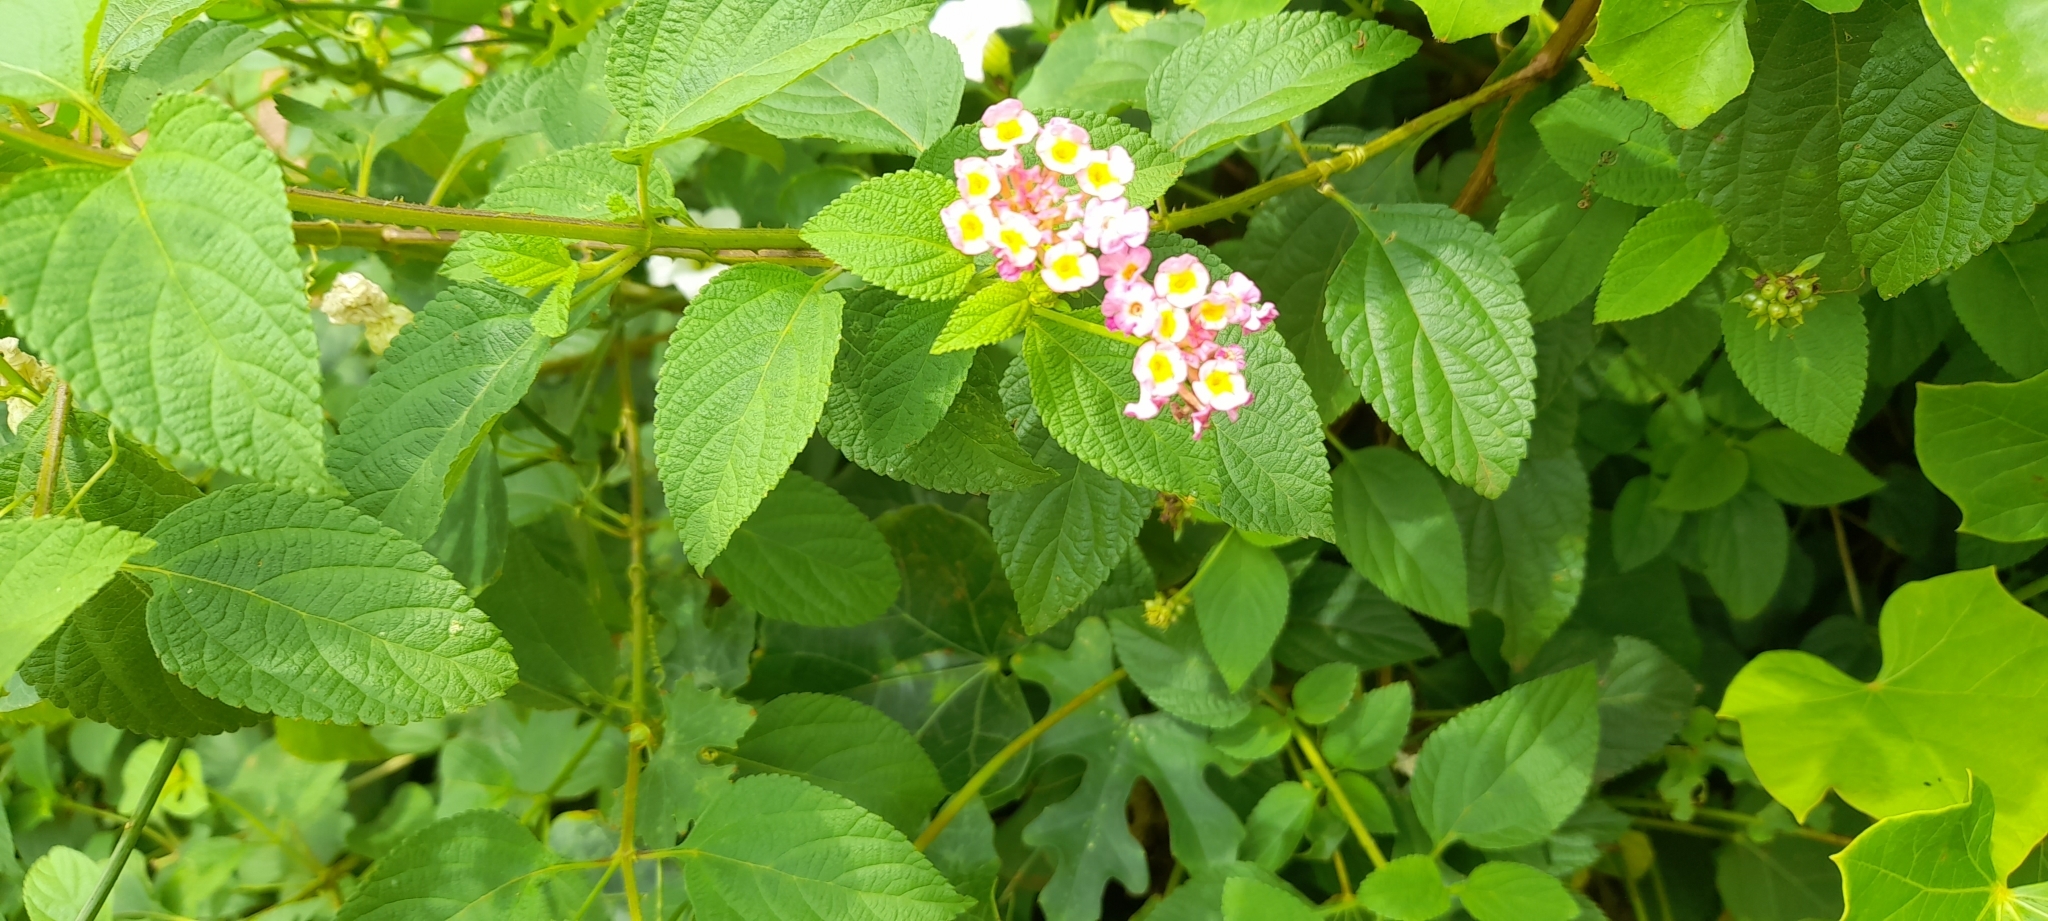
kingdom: Plantae
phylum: Tracheophyta
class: Magnoliopsida
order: Lamiales
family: Verbenaceae
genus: Lantana
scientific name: Lantana camara
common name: Lantana
